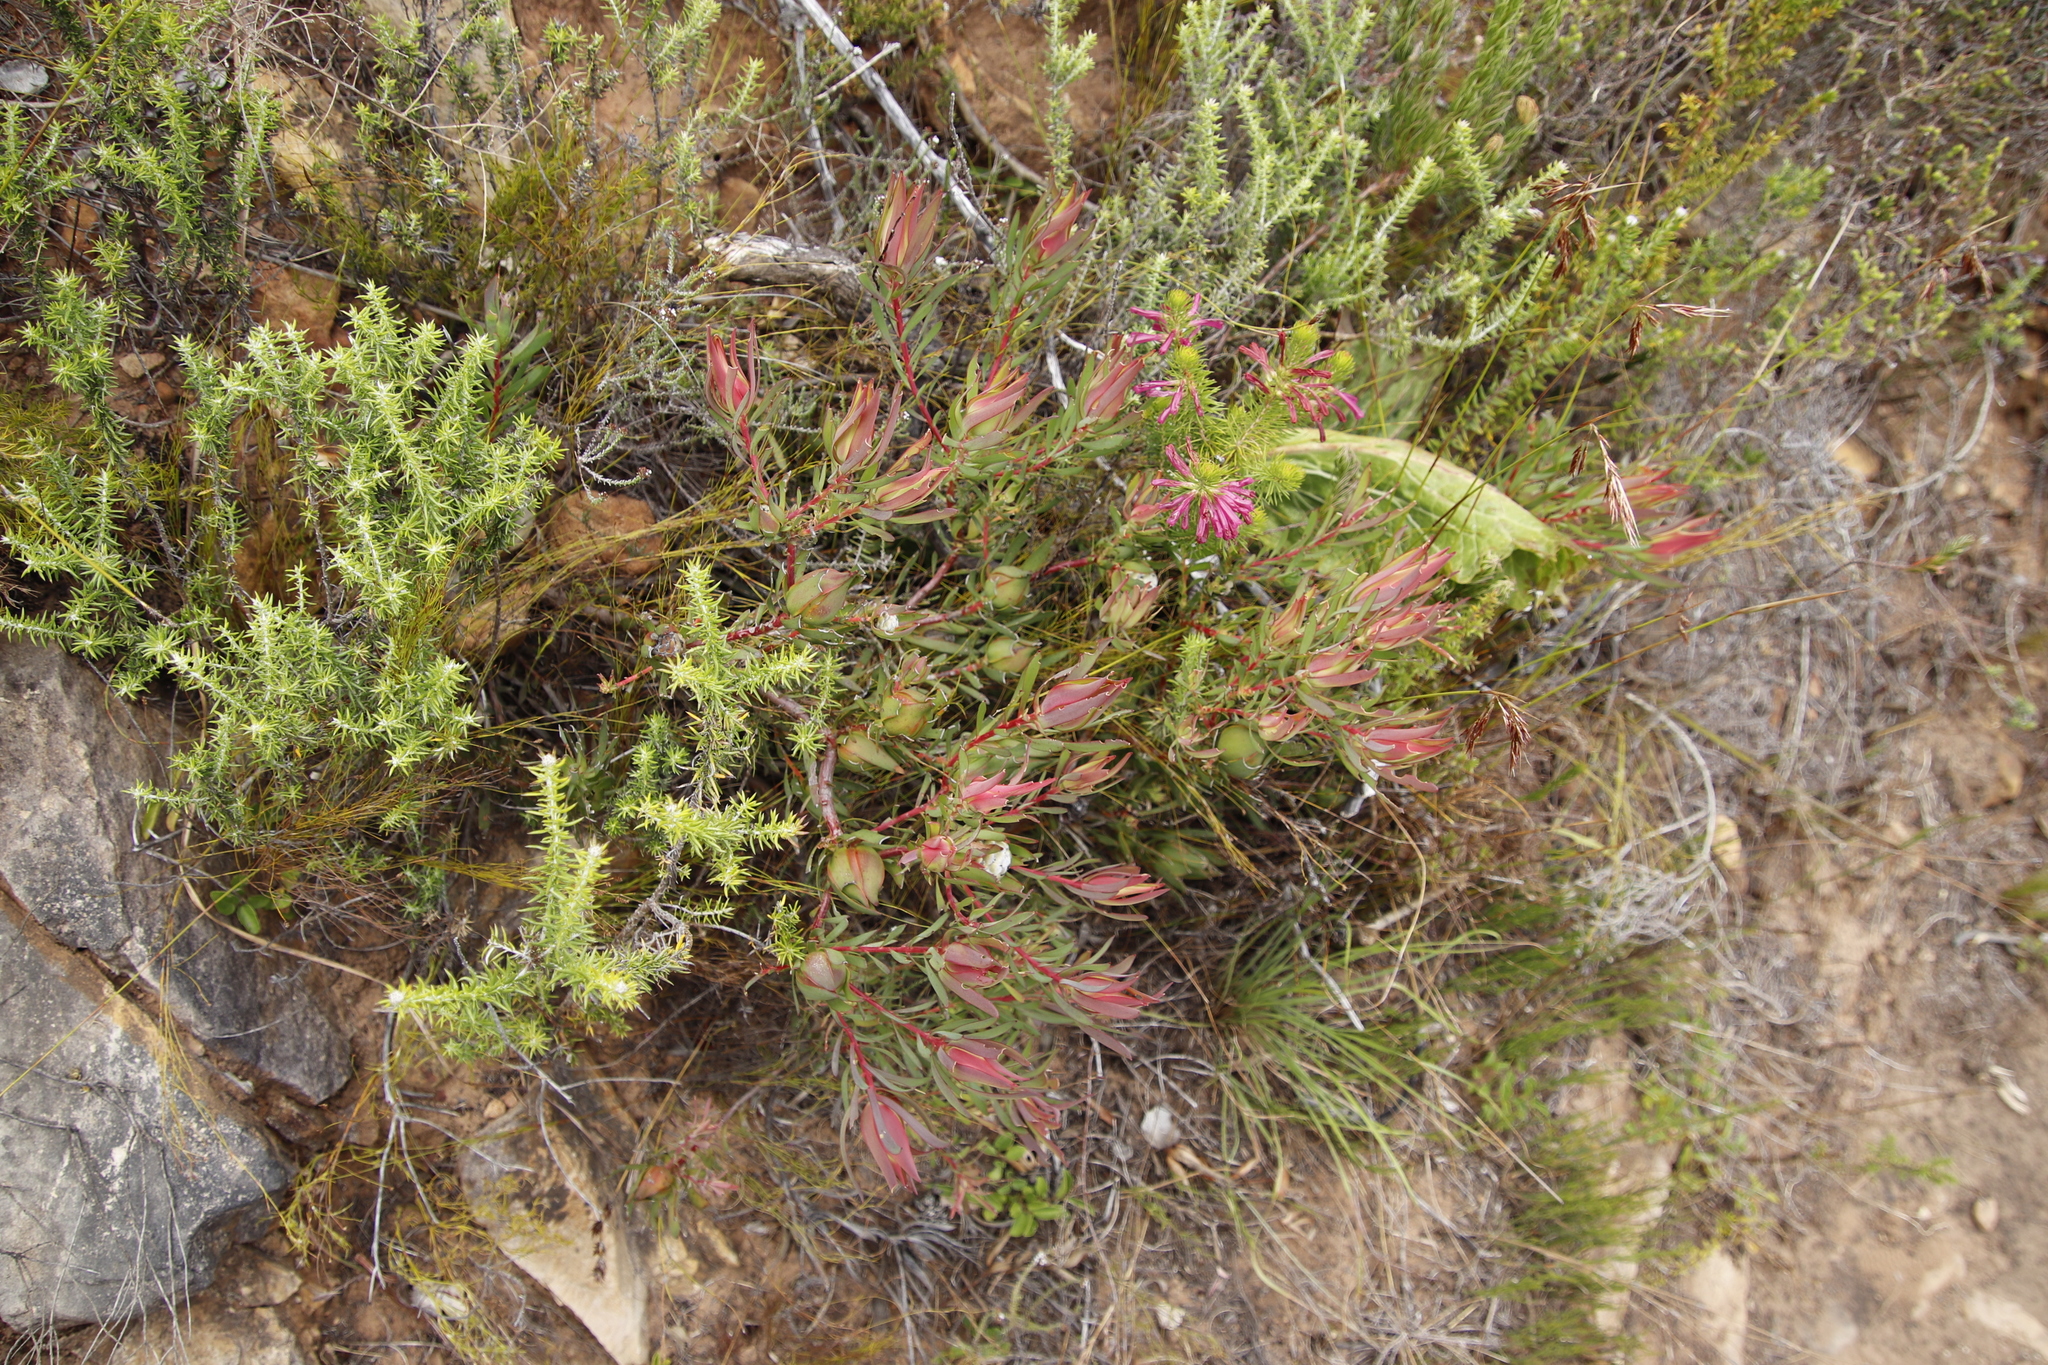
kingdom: Plantae
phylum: Tracheophyta
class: Magnoliopsida
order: Proteales
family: Proteaceae
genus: Leucadendron
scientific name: Leucadendron salignum
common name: Common sunshine conebush
